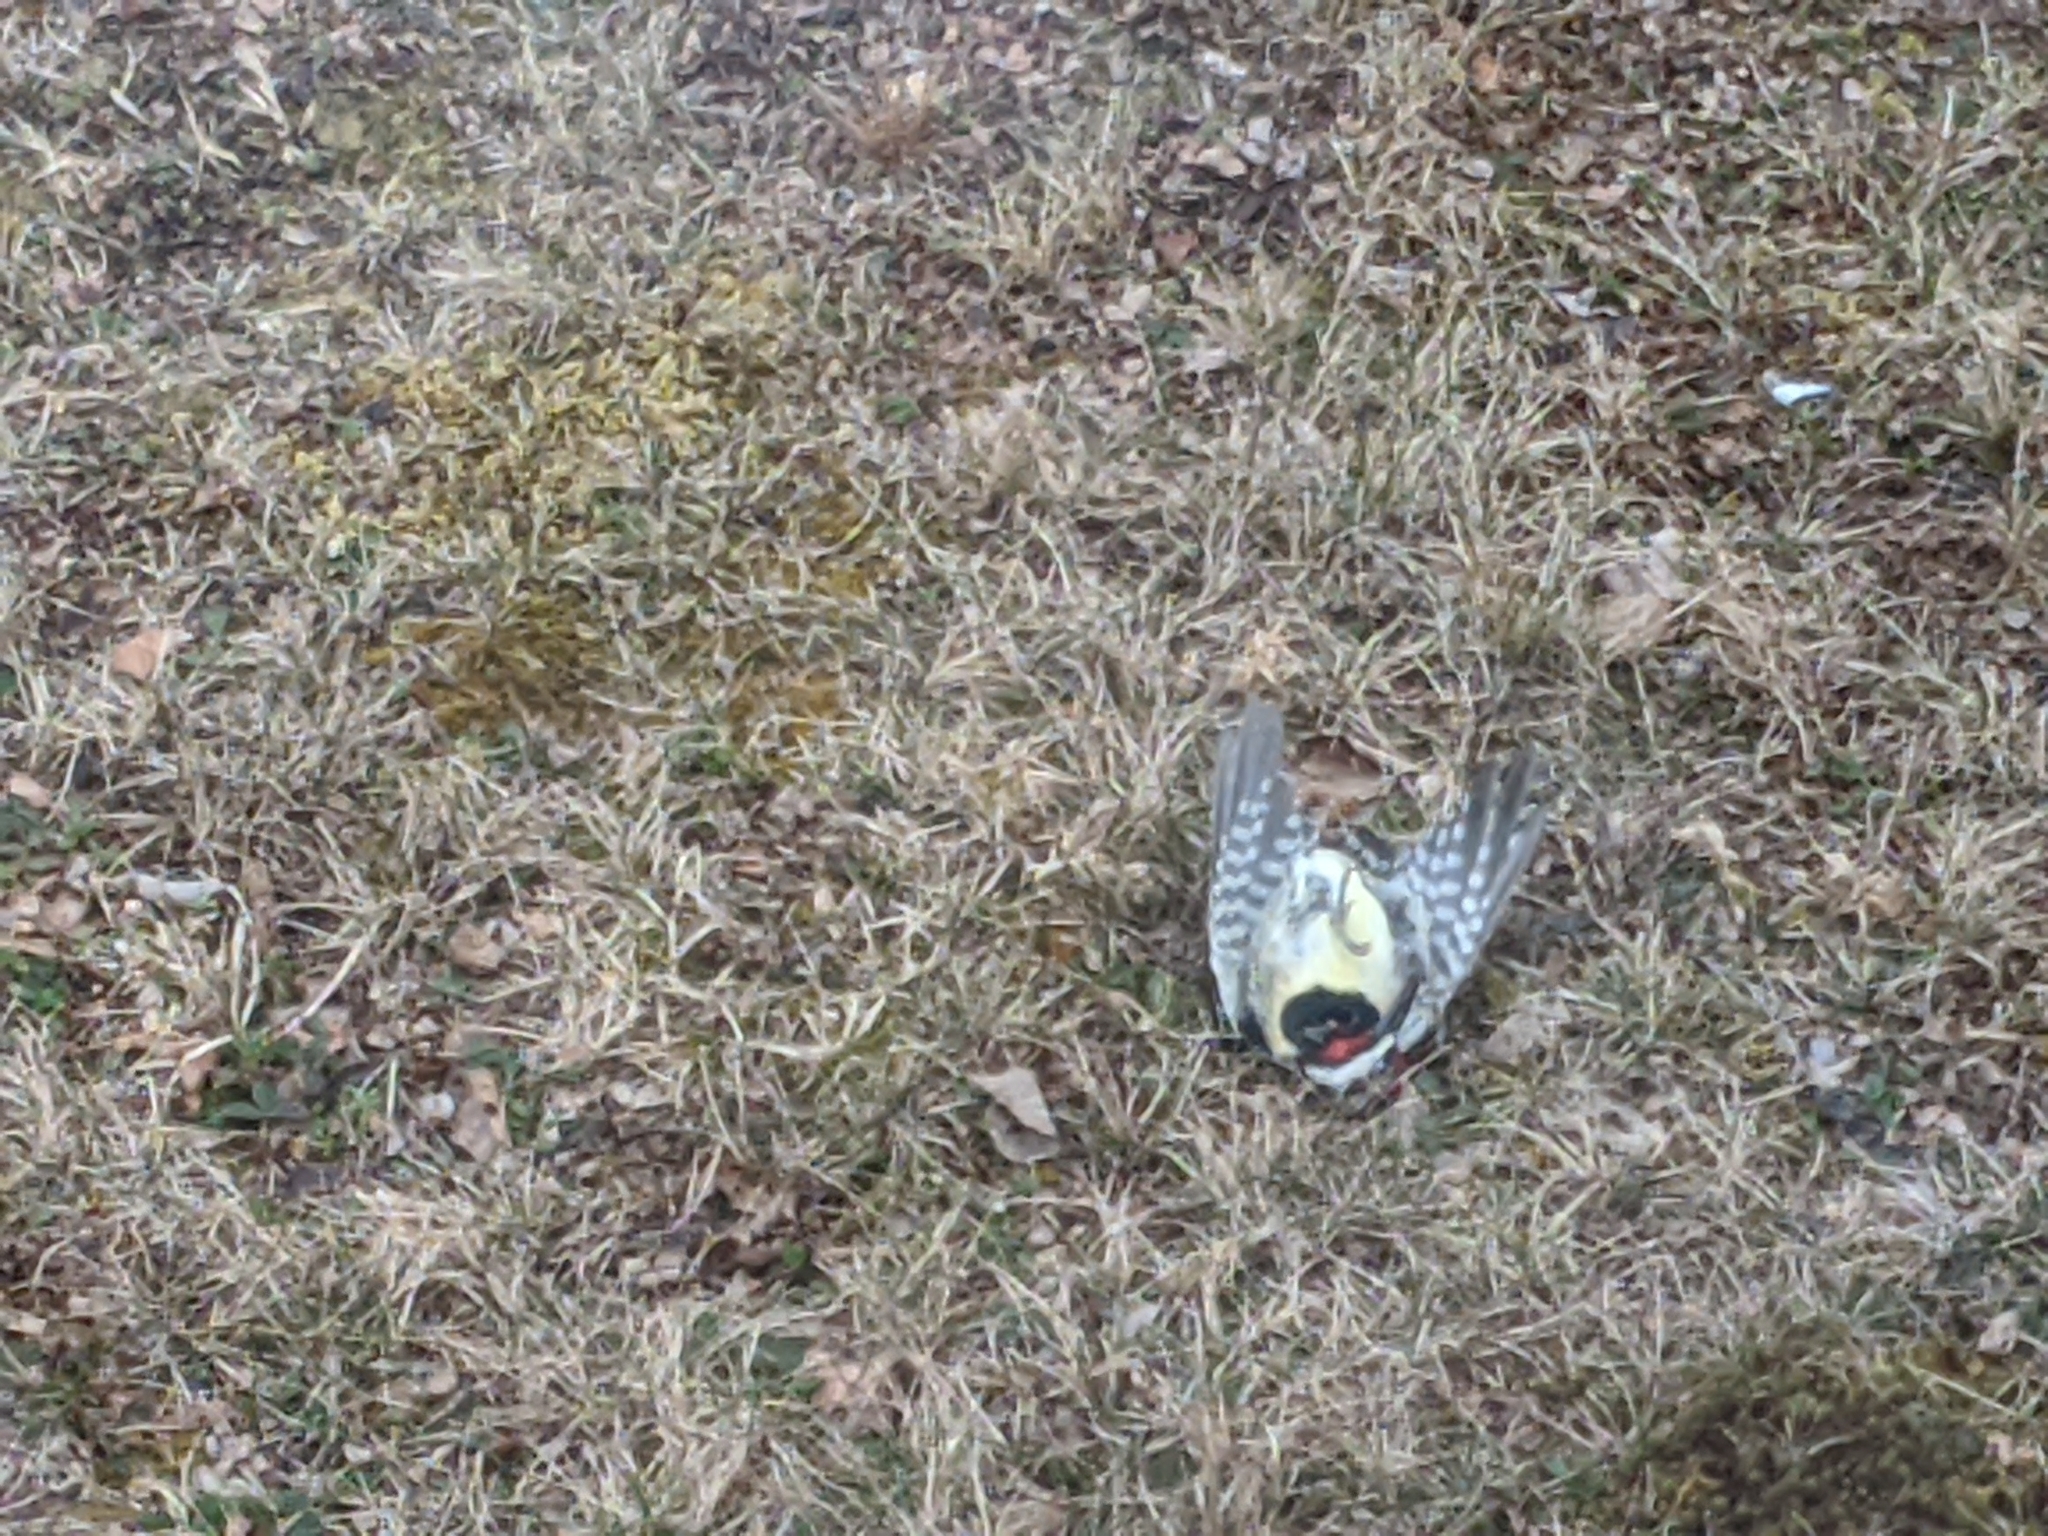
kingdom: Animalia
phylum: Chordata
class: Aves
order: Piciformes
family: Picidae
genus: Sphyrapicus
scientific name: Sphyrapicus varius
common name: Yellow-bellied sapsucker
